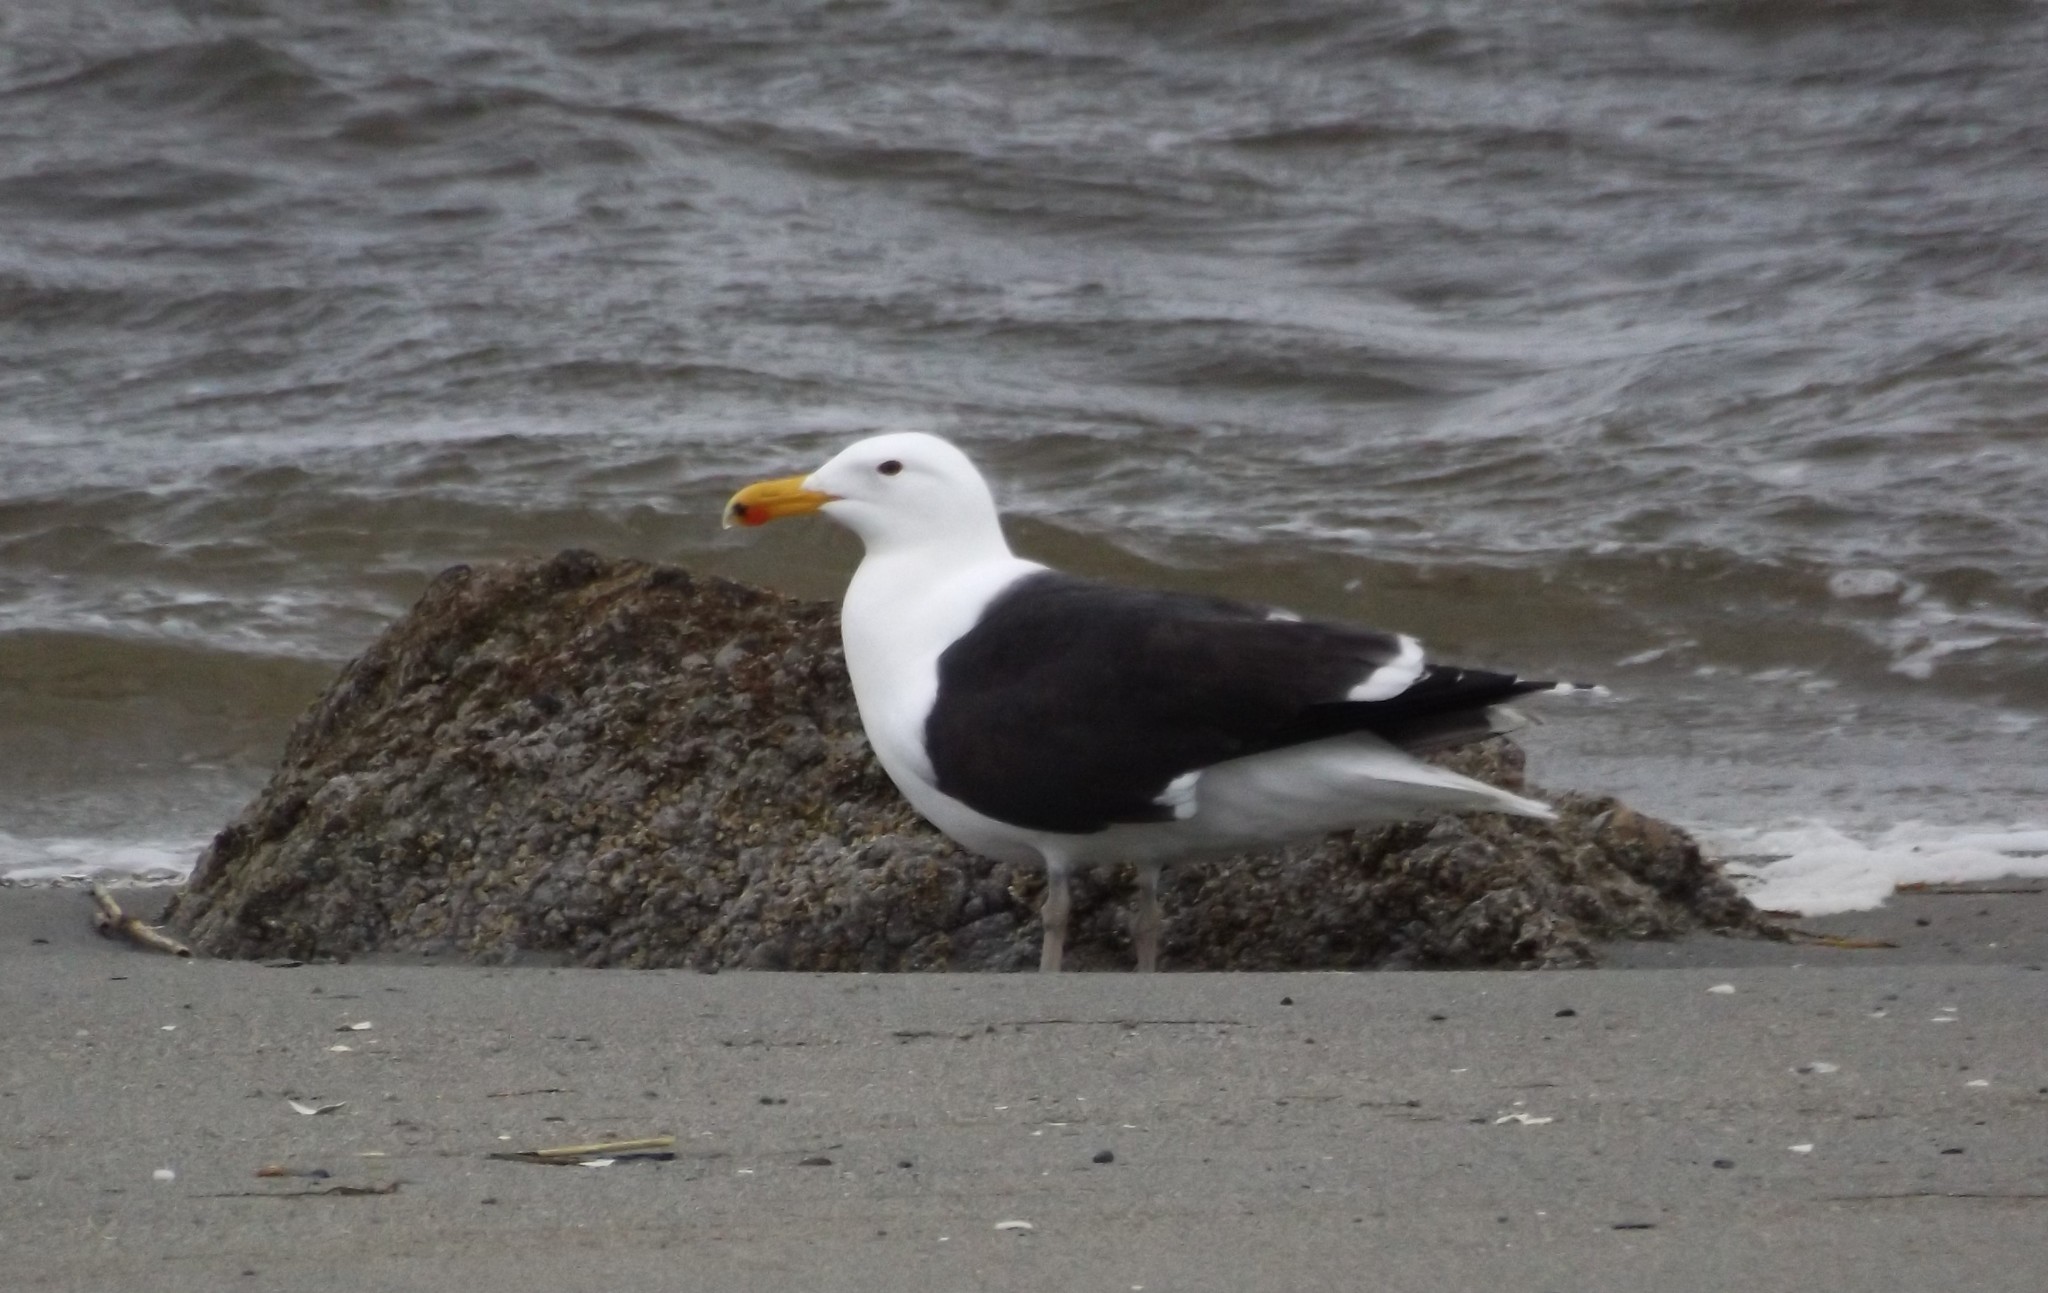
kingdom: Animalia
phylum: Chordata
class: Aves
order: Charadriiformes
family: Laridae
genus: Larus
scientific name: Larus marinus
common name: Great black-backed gull
